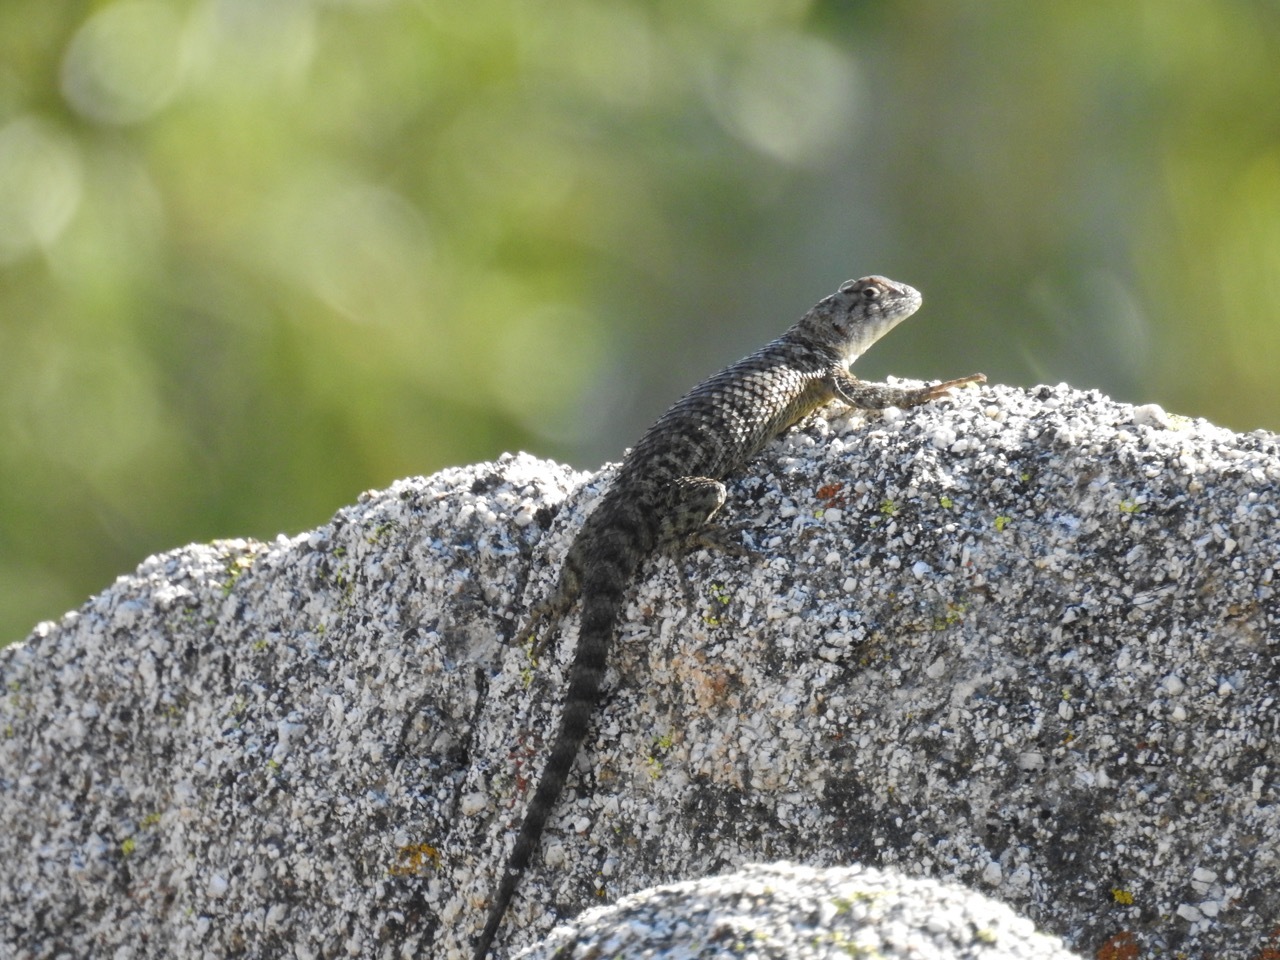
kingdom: Animalia
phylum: Chordata
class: Squamata
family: Phrynosomatidae
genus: Sceloporus
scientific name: Sceloporus orcutti
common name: Granite spiny lizard
